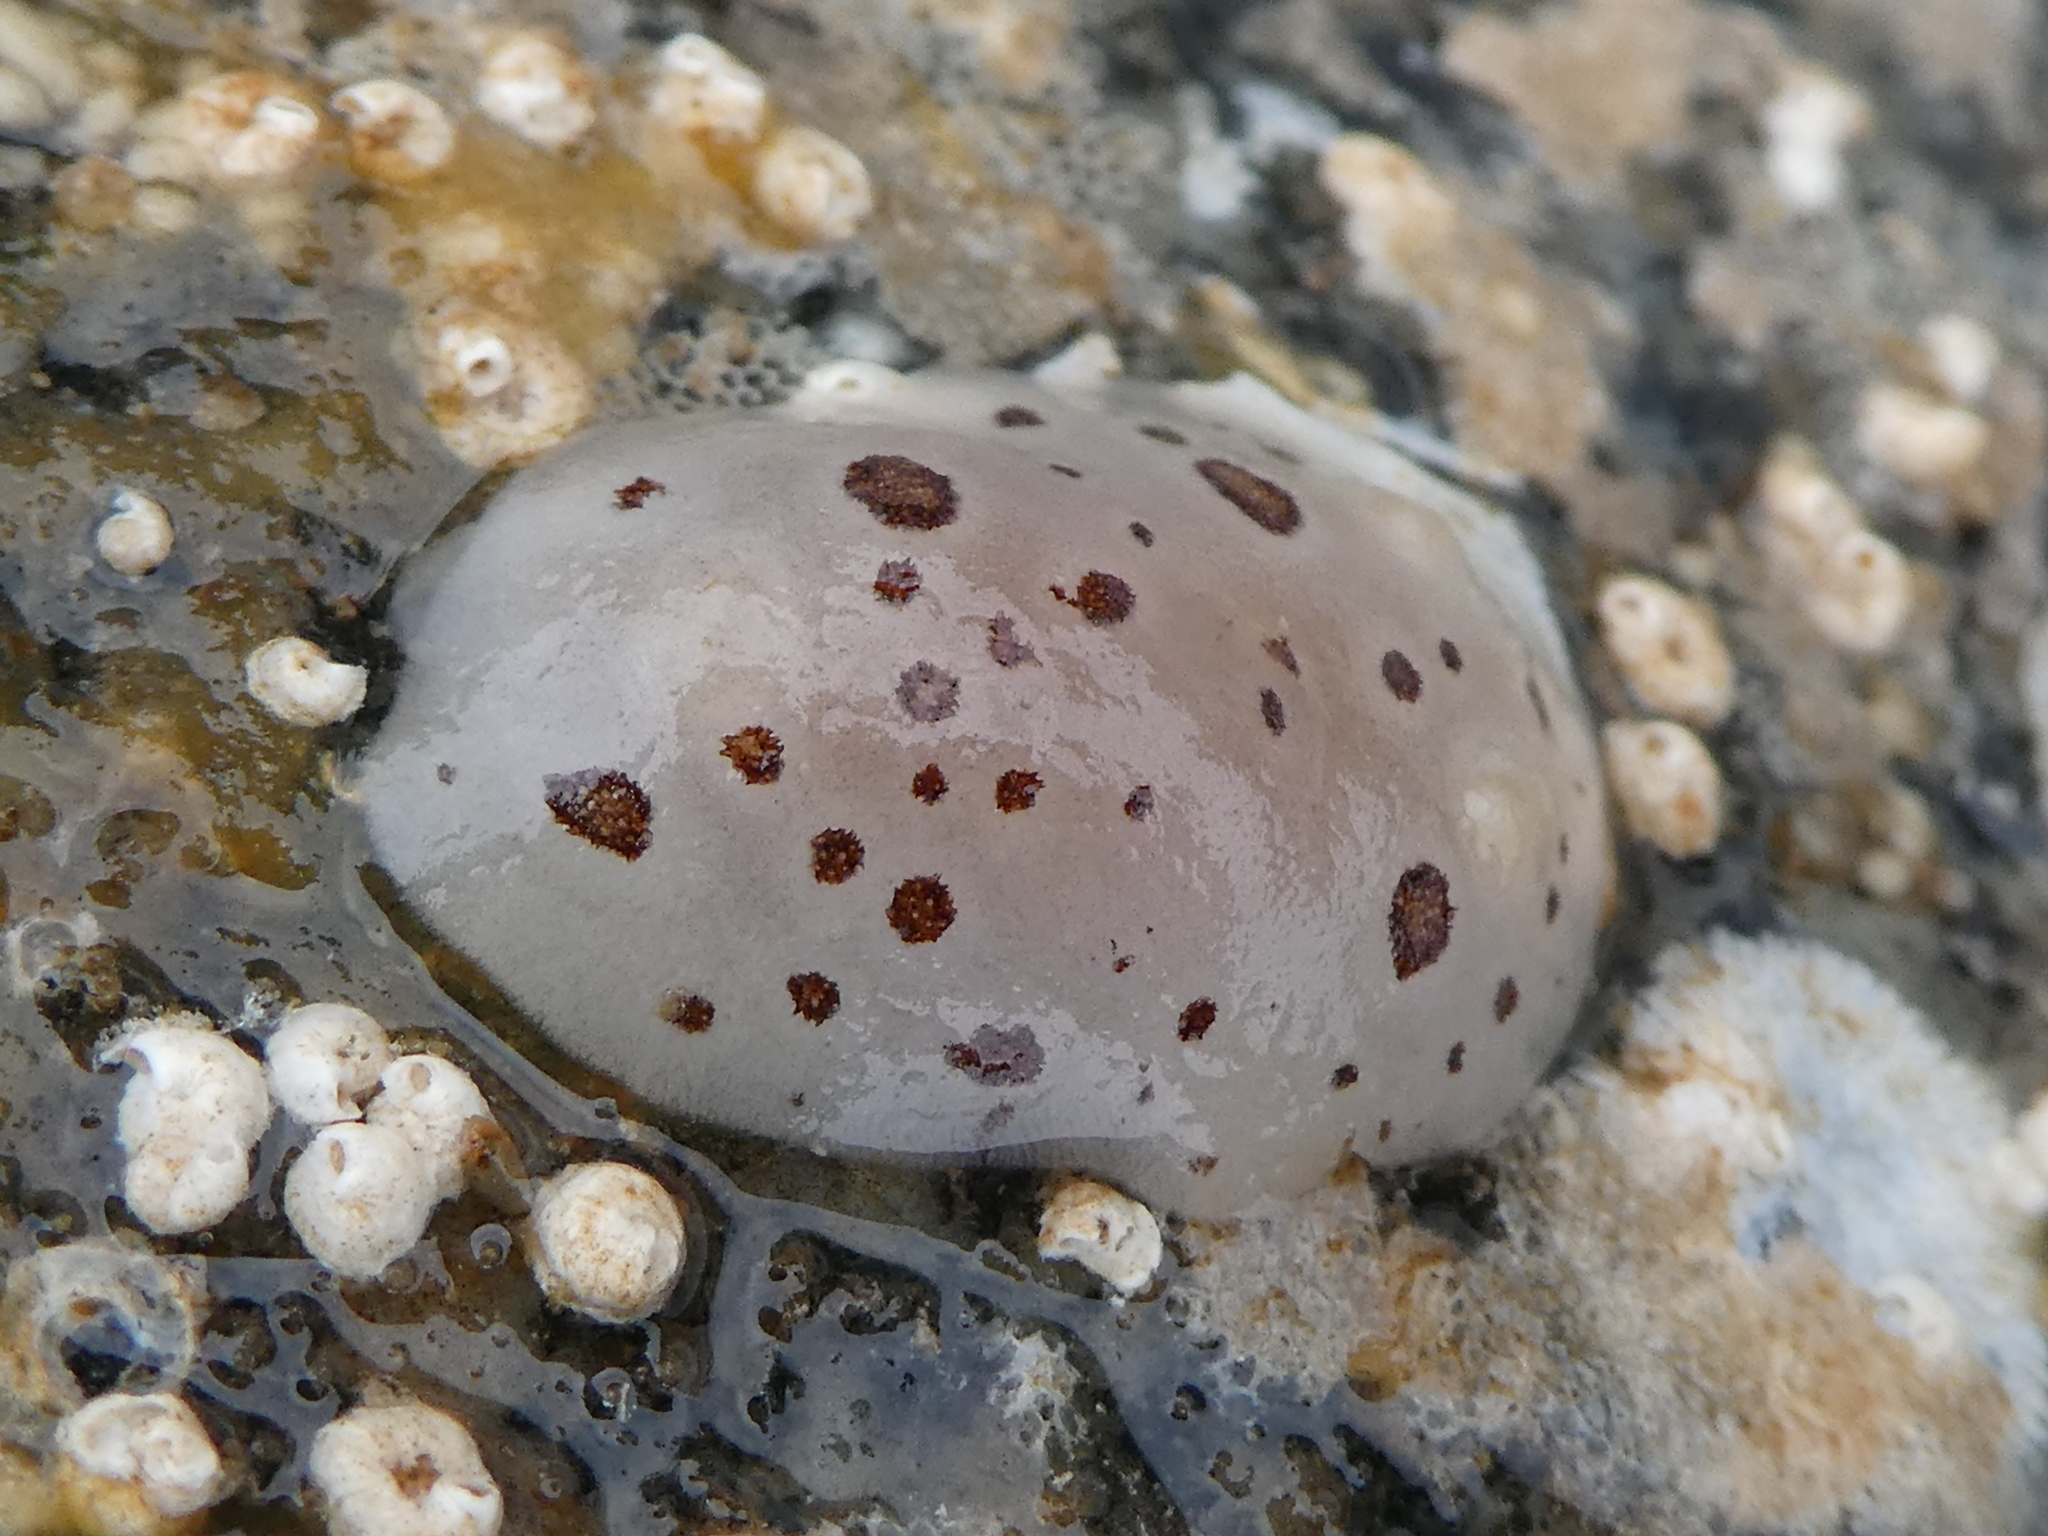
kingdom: Animalia
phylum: Mollusca
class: Gastropoda
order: Nudibranchia
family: Discodorididae
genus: Diaulula
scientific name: Diaulula odonoghuei
